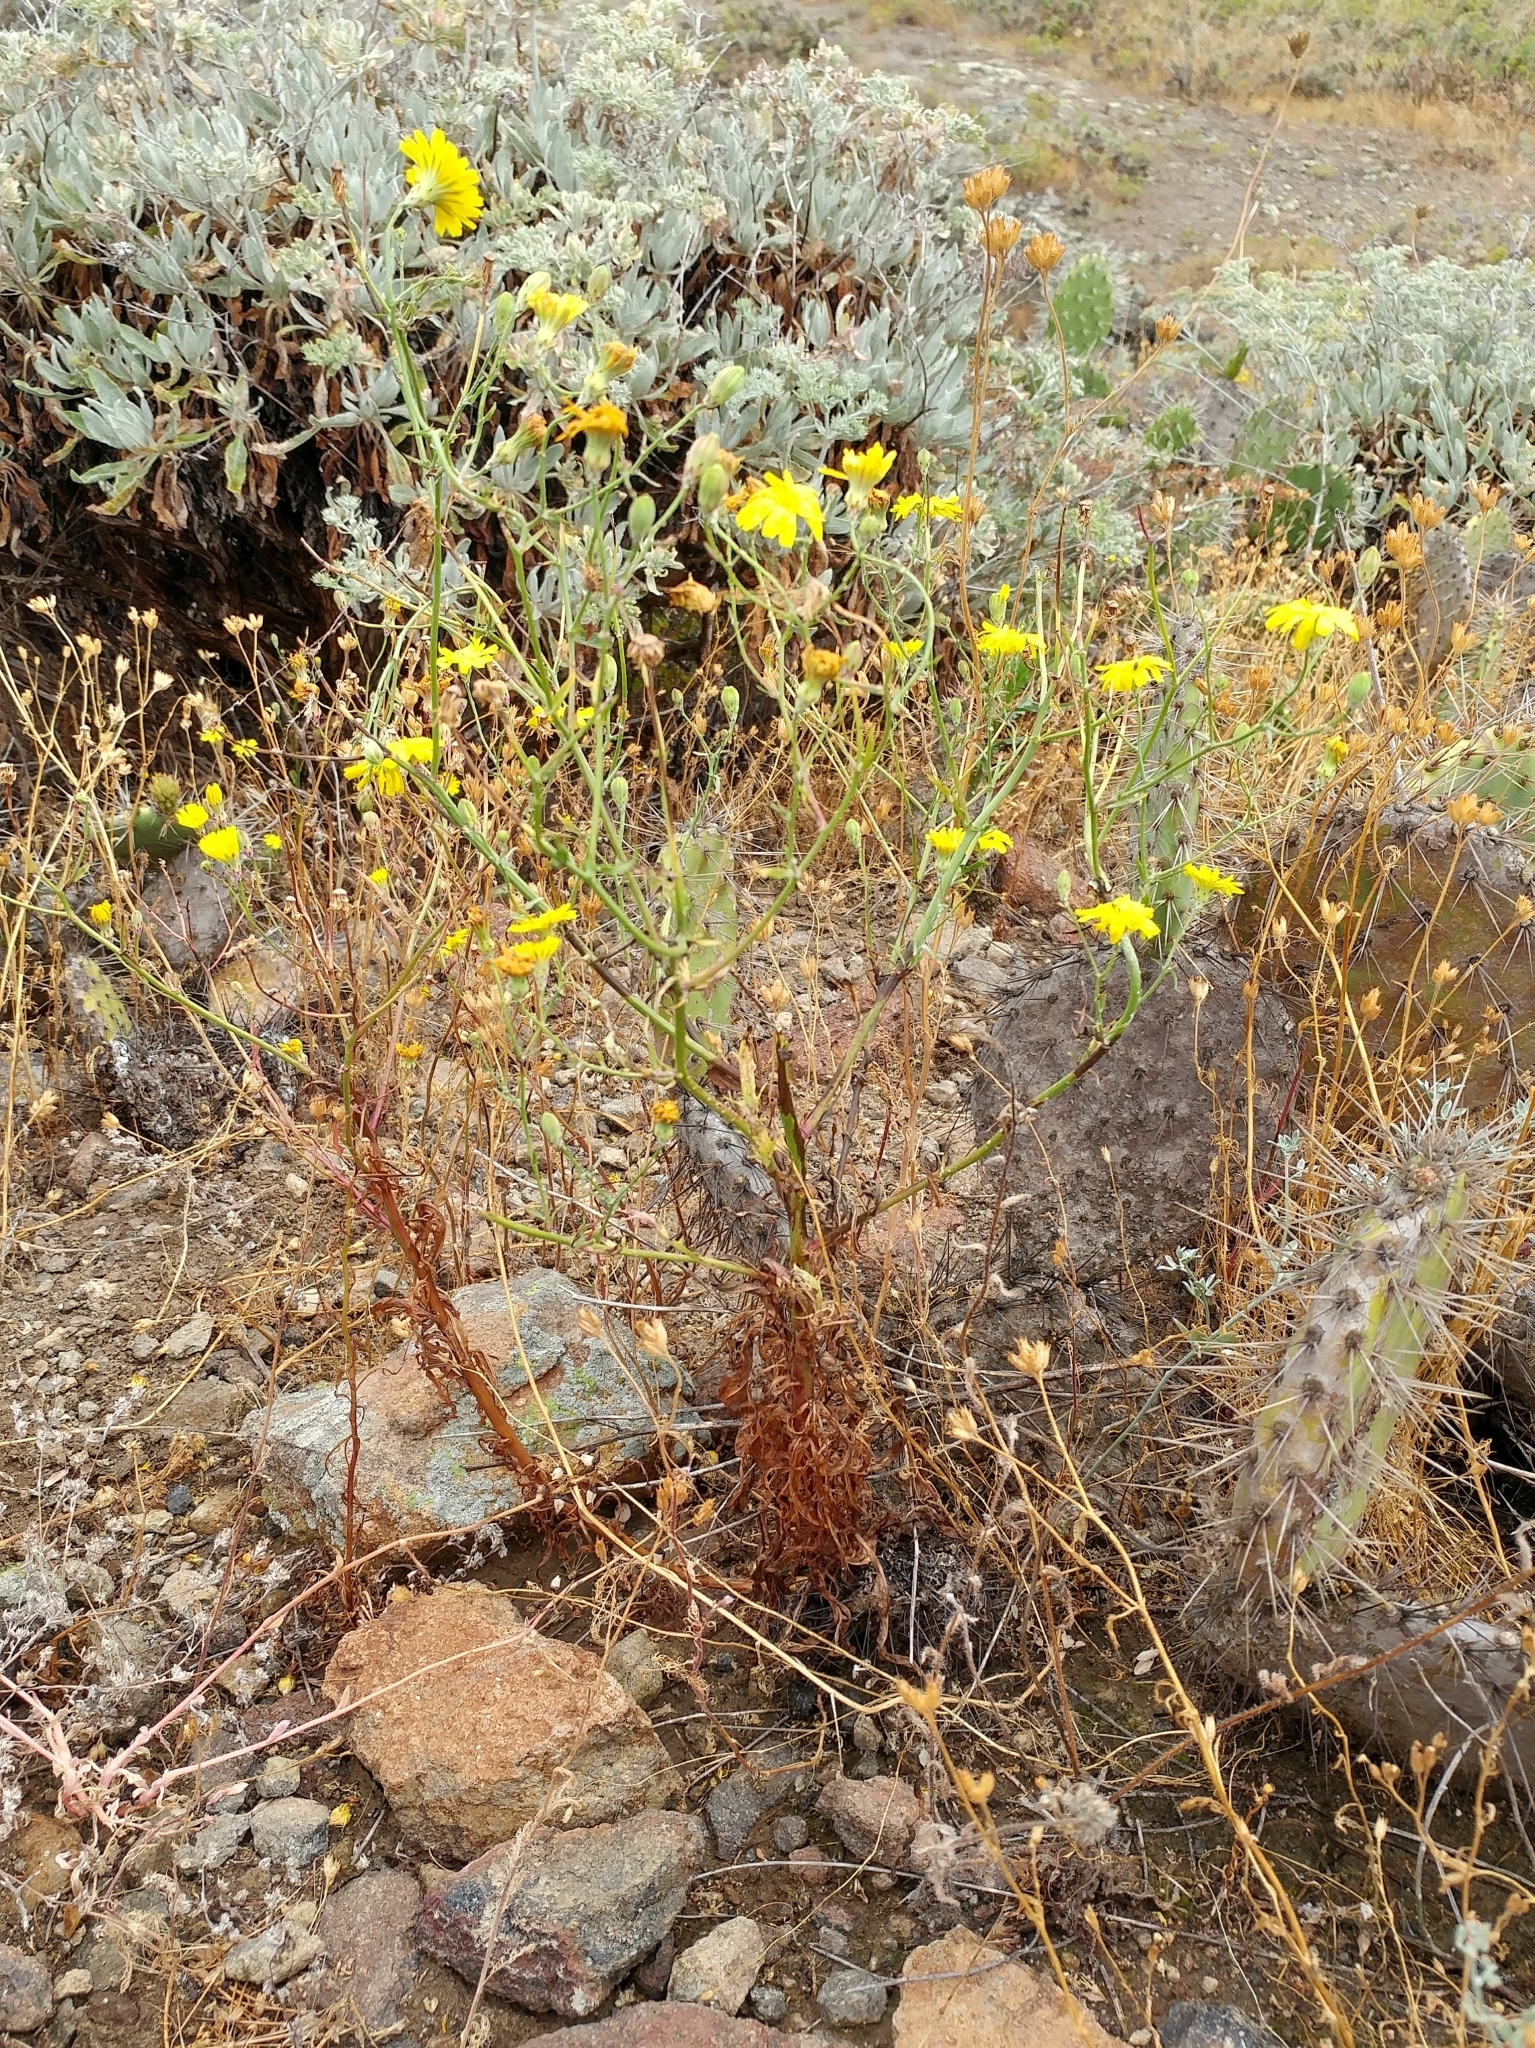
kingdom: Plantae
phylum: Tracheophyta
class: Magnoliopsida
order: Asterales
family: Asteraceae
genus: Malacothrix
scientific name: Malacothrix foliosa
